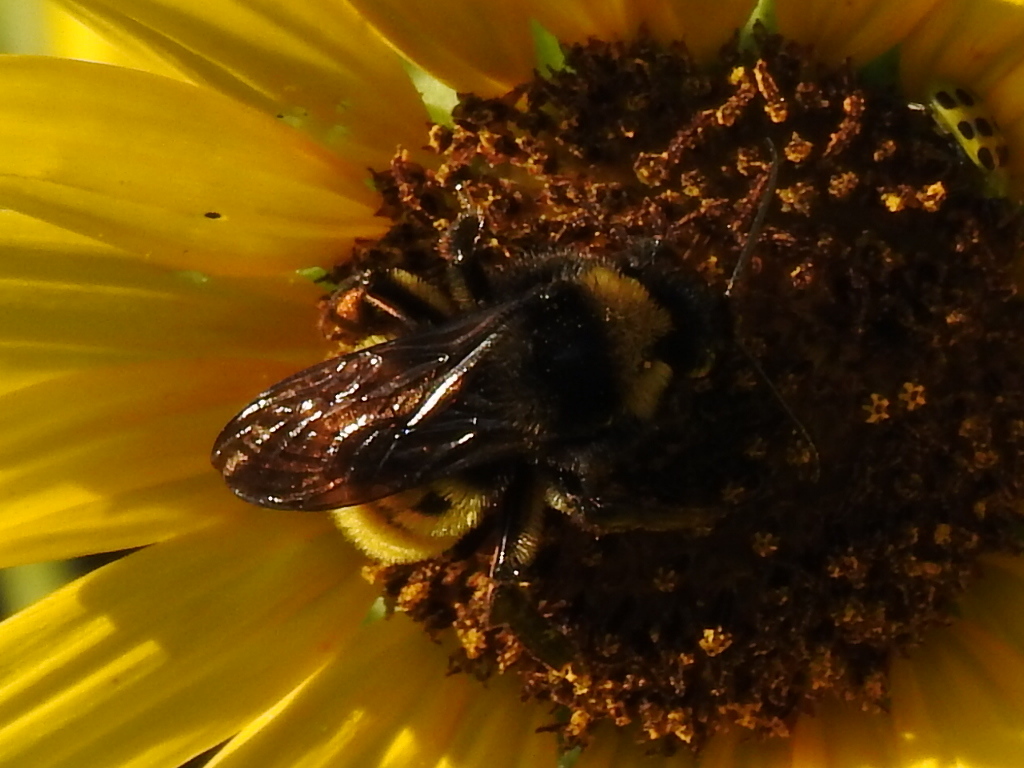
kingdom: Animalia
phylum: Arthropoda
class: Insecta
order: Hymenoptera
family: Apidae
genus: Bombus
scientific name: Bombus pensylvanicus
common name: Bumble bee
